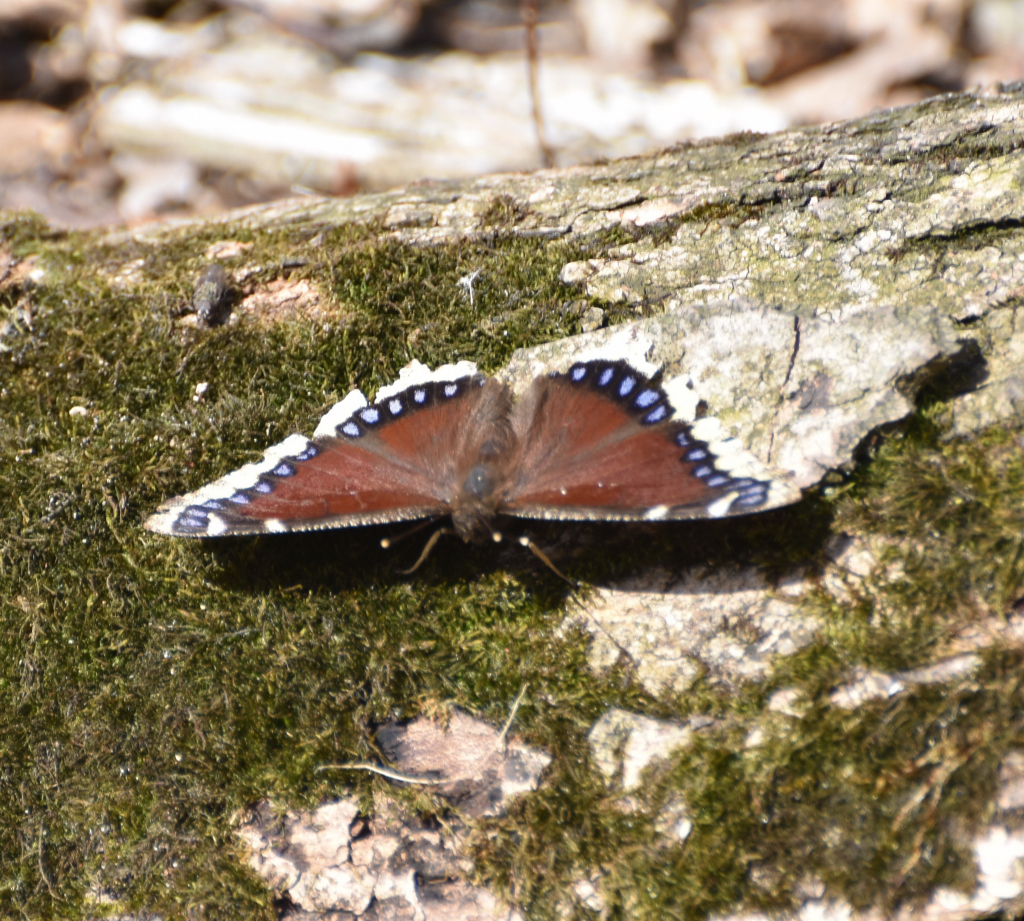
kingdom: Animalia
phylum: Arthropoda
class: Insecta
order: Lepidoptera
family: Nymphalidae
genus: Nymphalis
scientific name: Nymphalis antiopa
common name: Camberwell beauty
